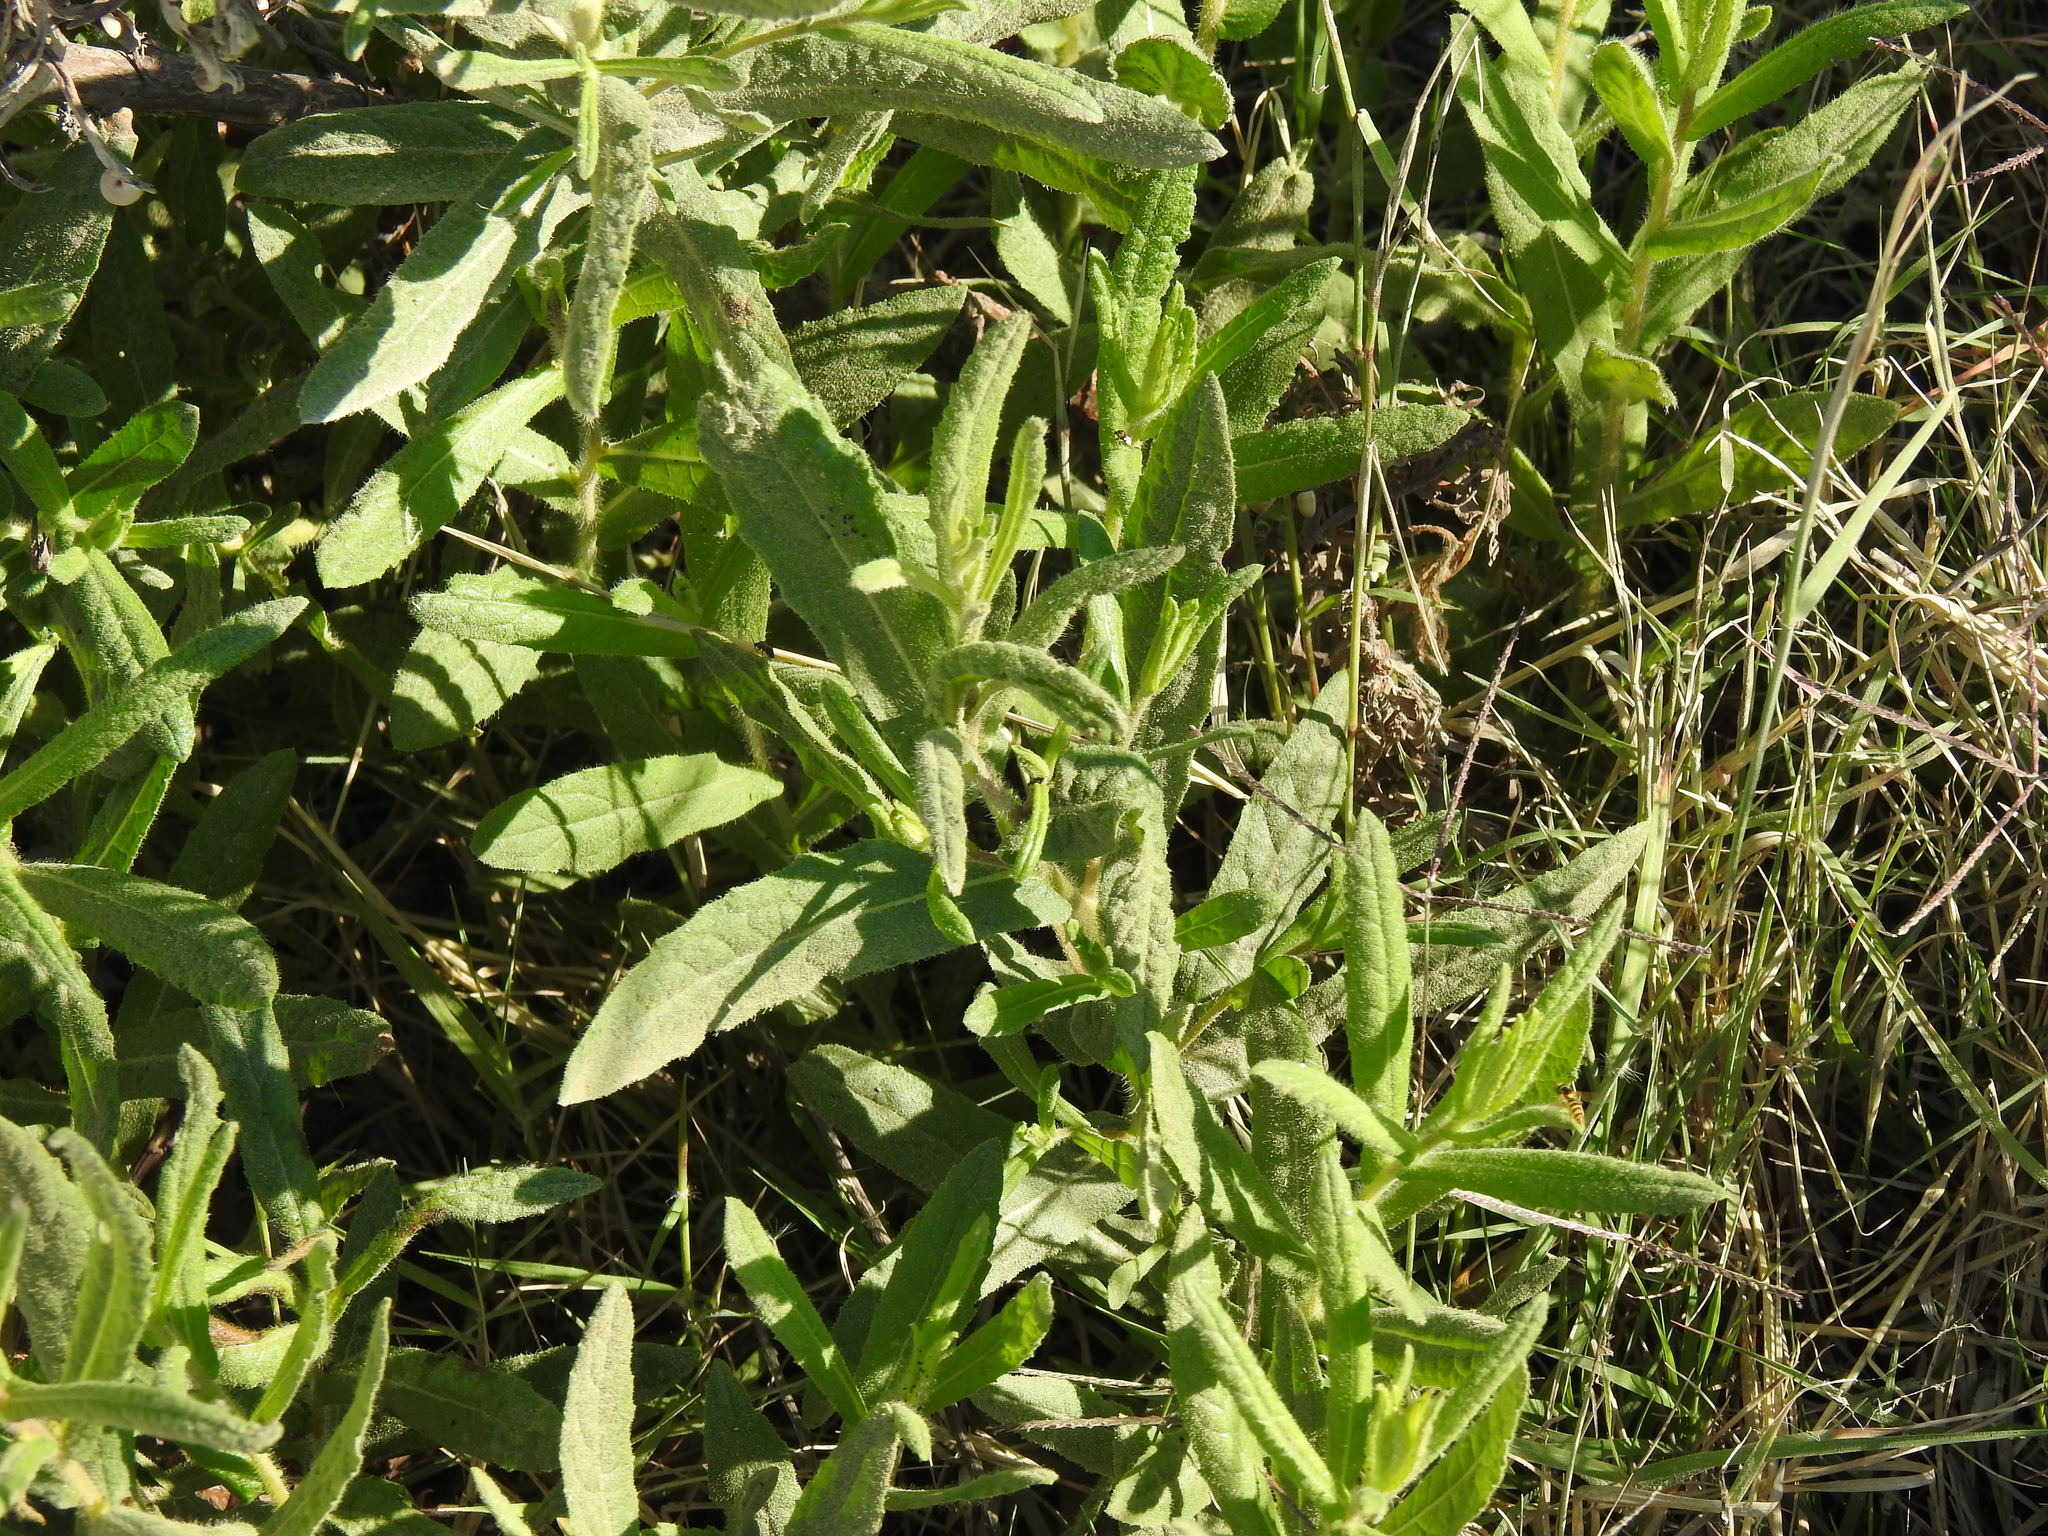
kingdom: Plantae
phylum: Tracheophyta
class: Magnoliopsida
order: Asterales
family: Asteraceae
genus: Dittrichia
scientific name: Dittrichia viscosa
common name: Woody fleabane
